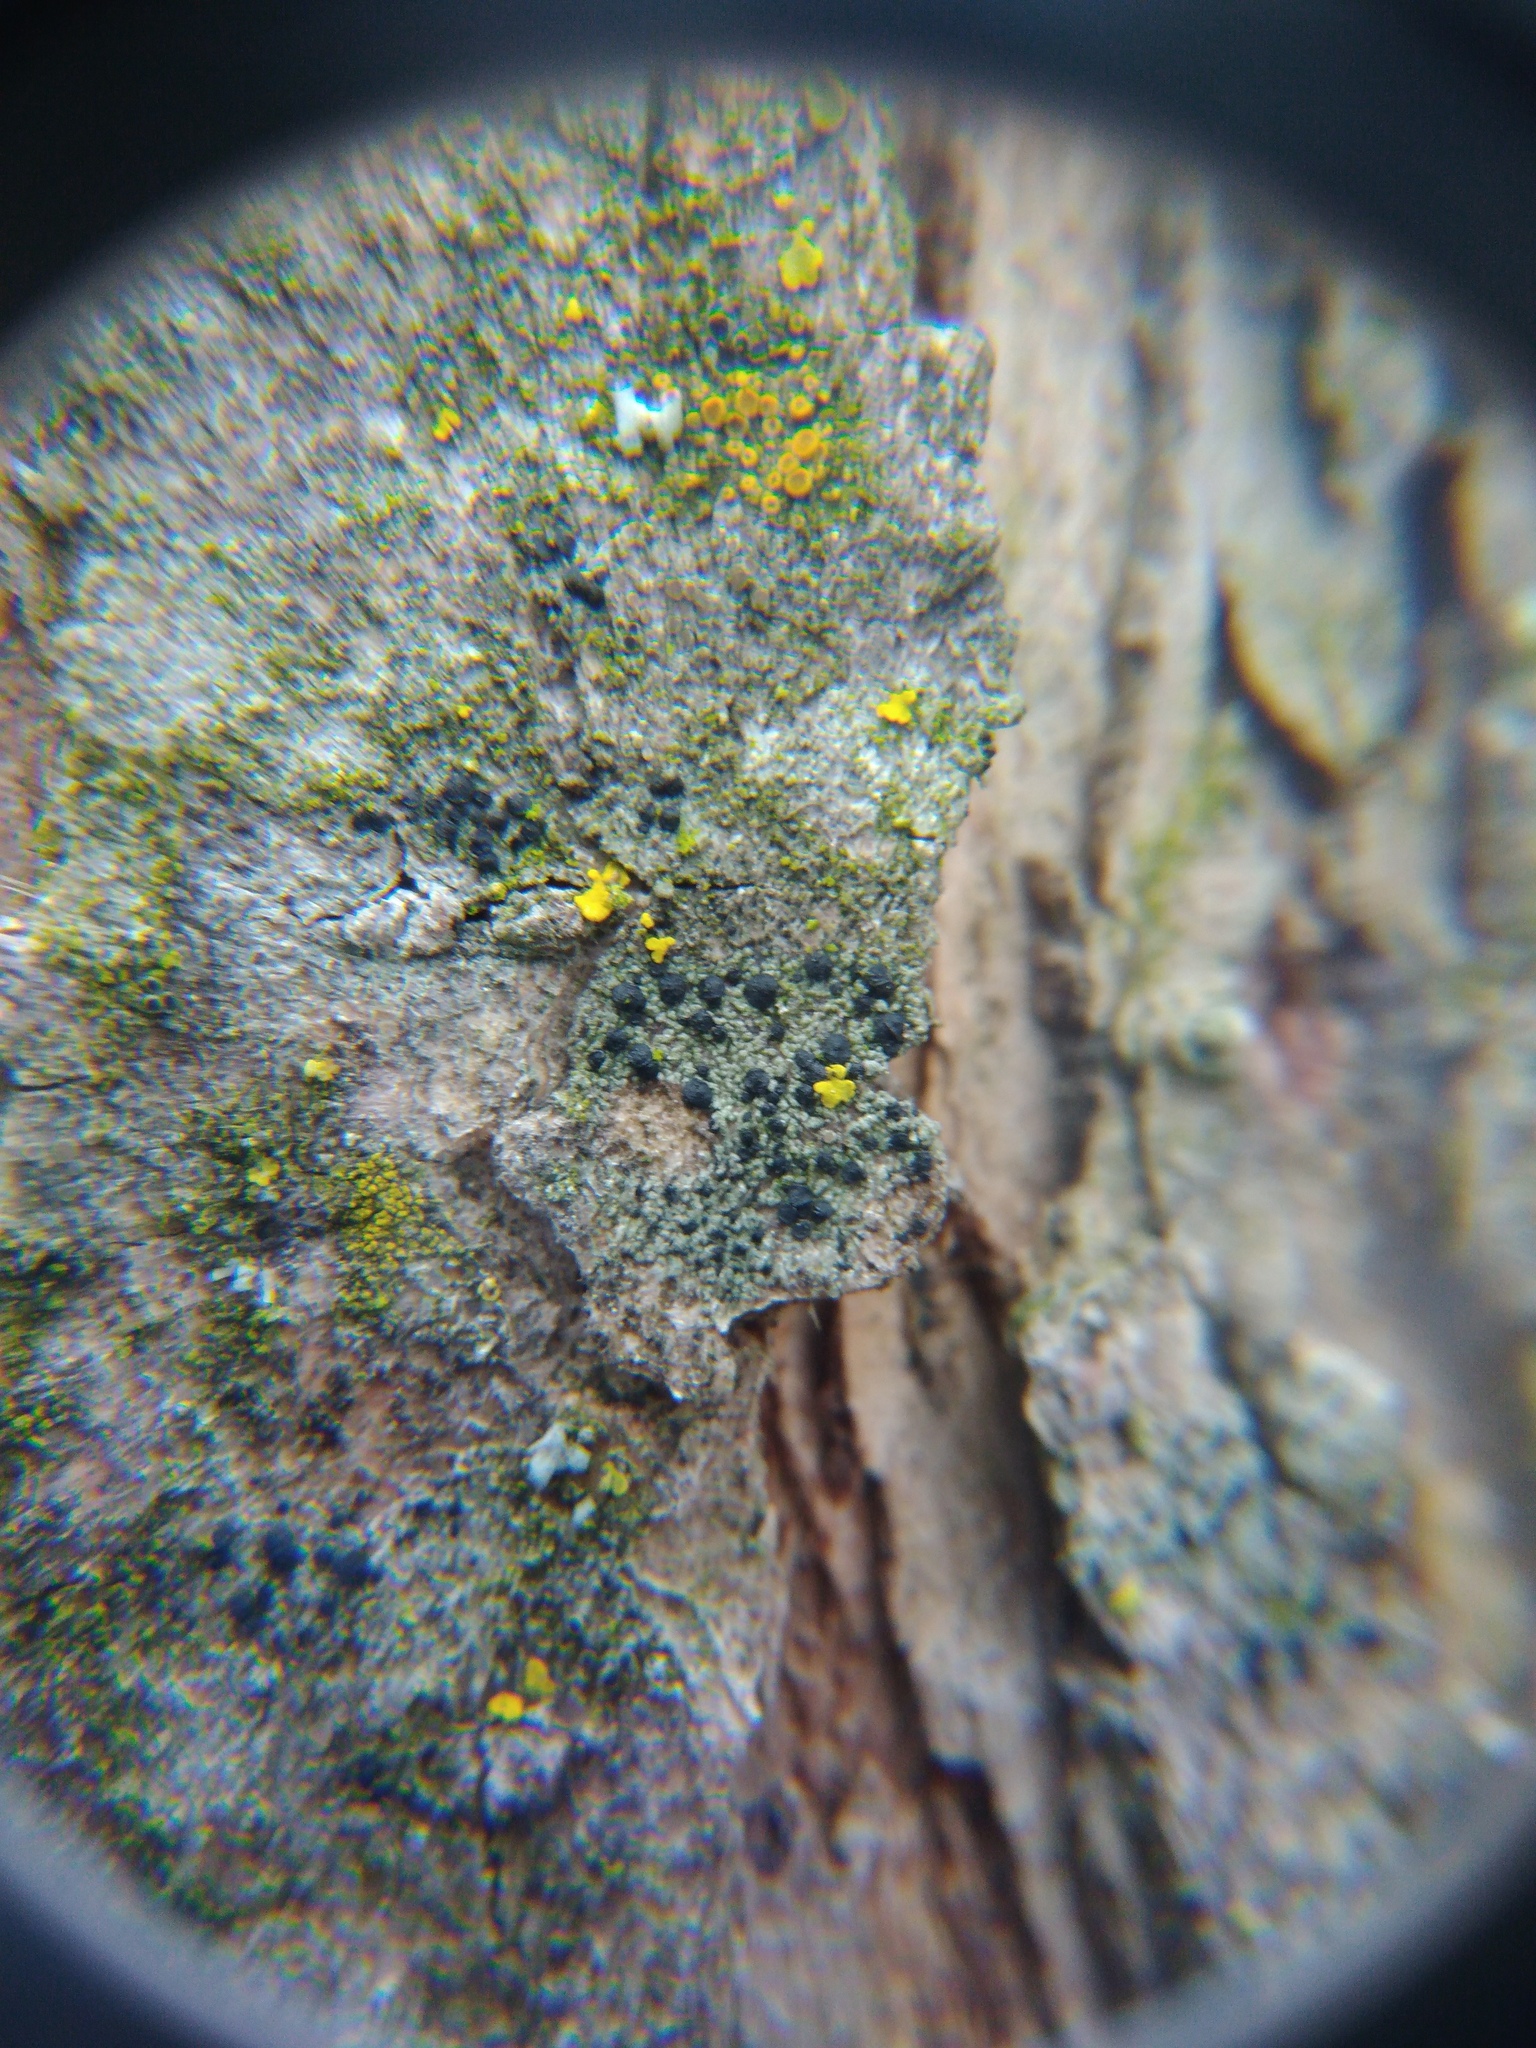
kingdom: Fungi
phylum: Ascomycota
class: Lecanoromycetes
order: Caliciales
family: Caliciaceae
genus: Amandinea
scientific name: Amandinea punctata
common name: Tiny button lichen
